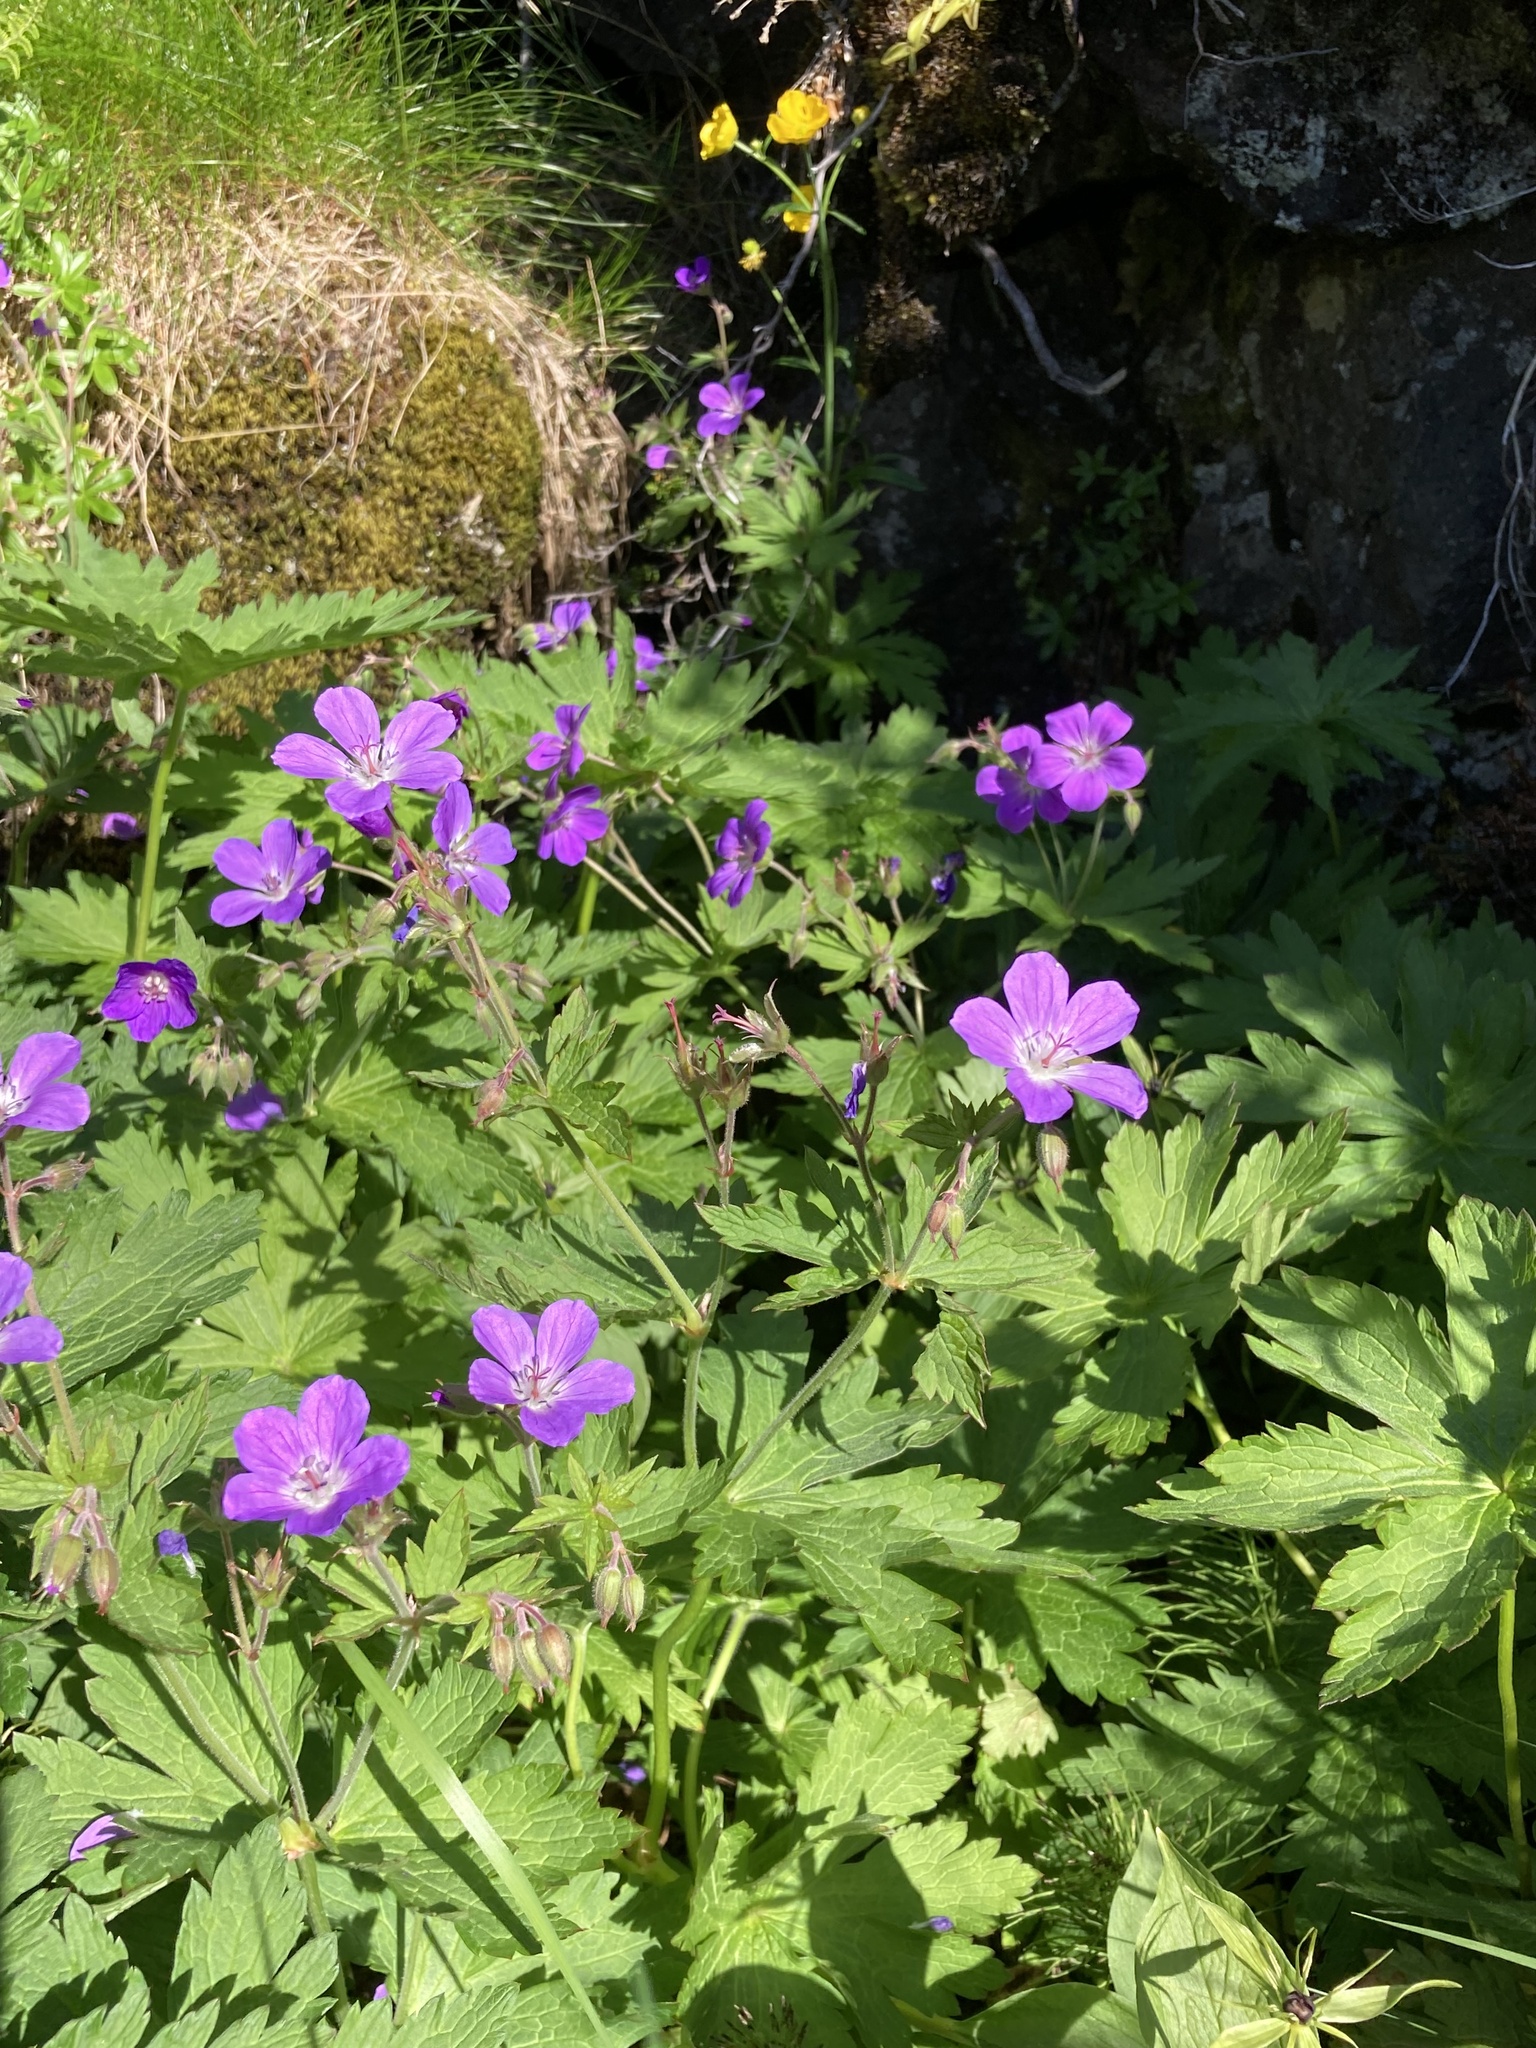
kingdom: Plantae
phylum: Tracheophyta
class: Magnoliopsida
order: Geraniales
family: Geraniaceae
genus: Geranium
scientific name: Geranium sylvaticum
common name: Wood crane's-bill
